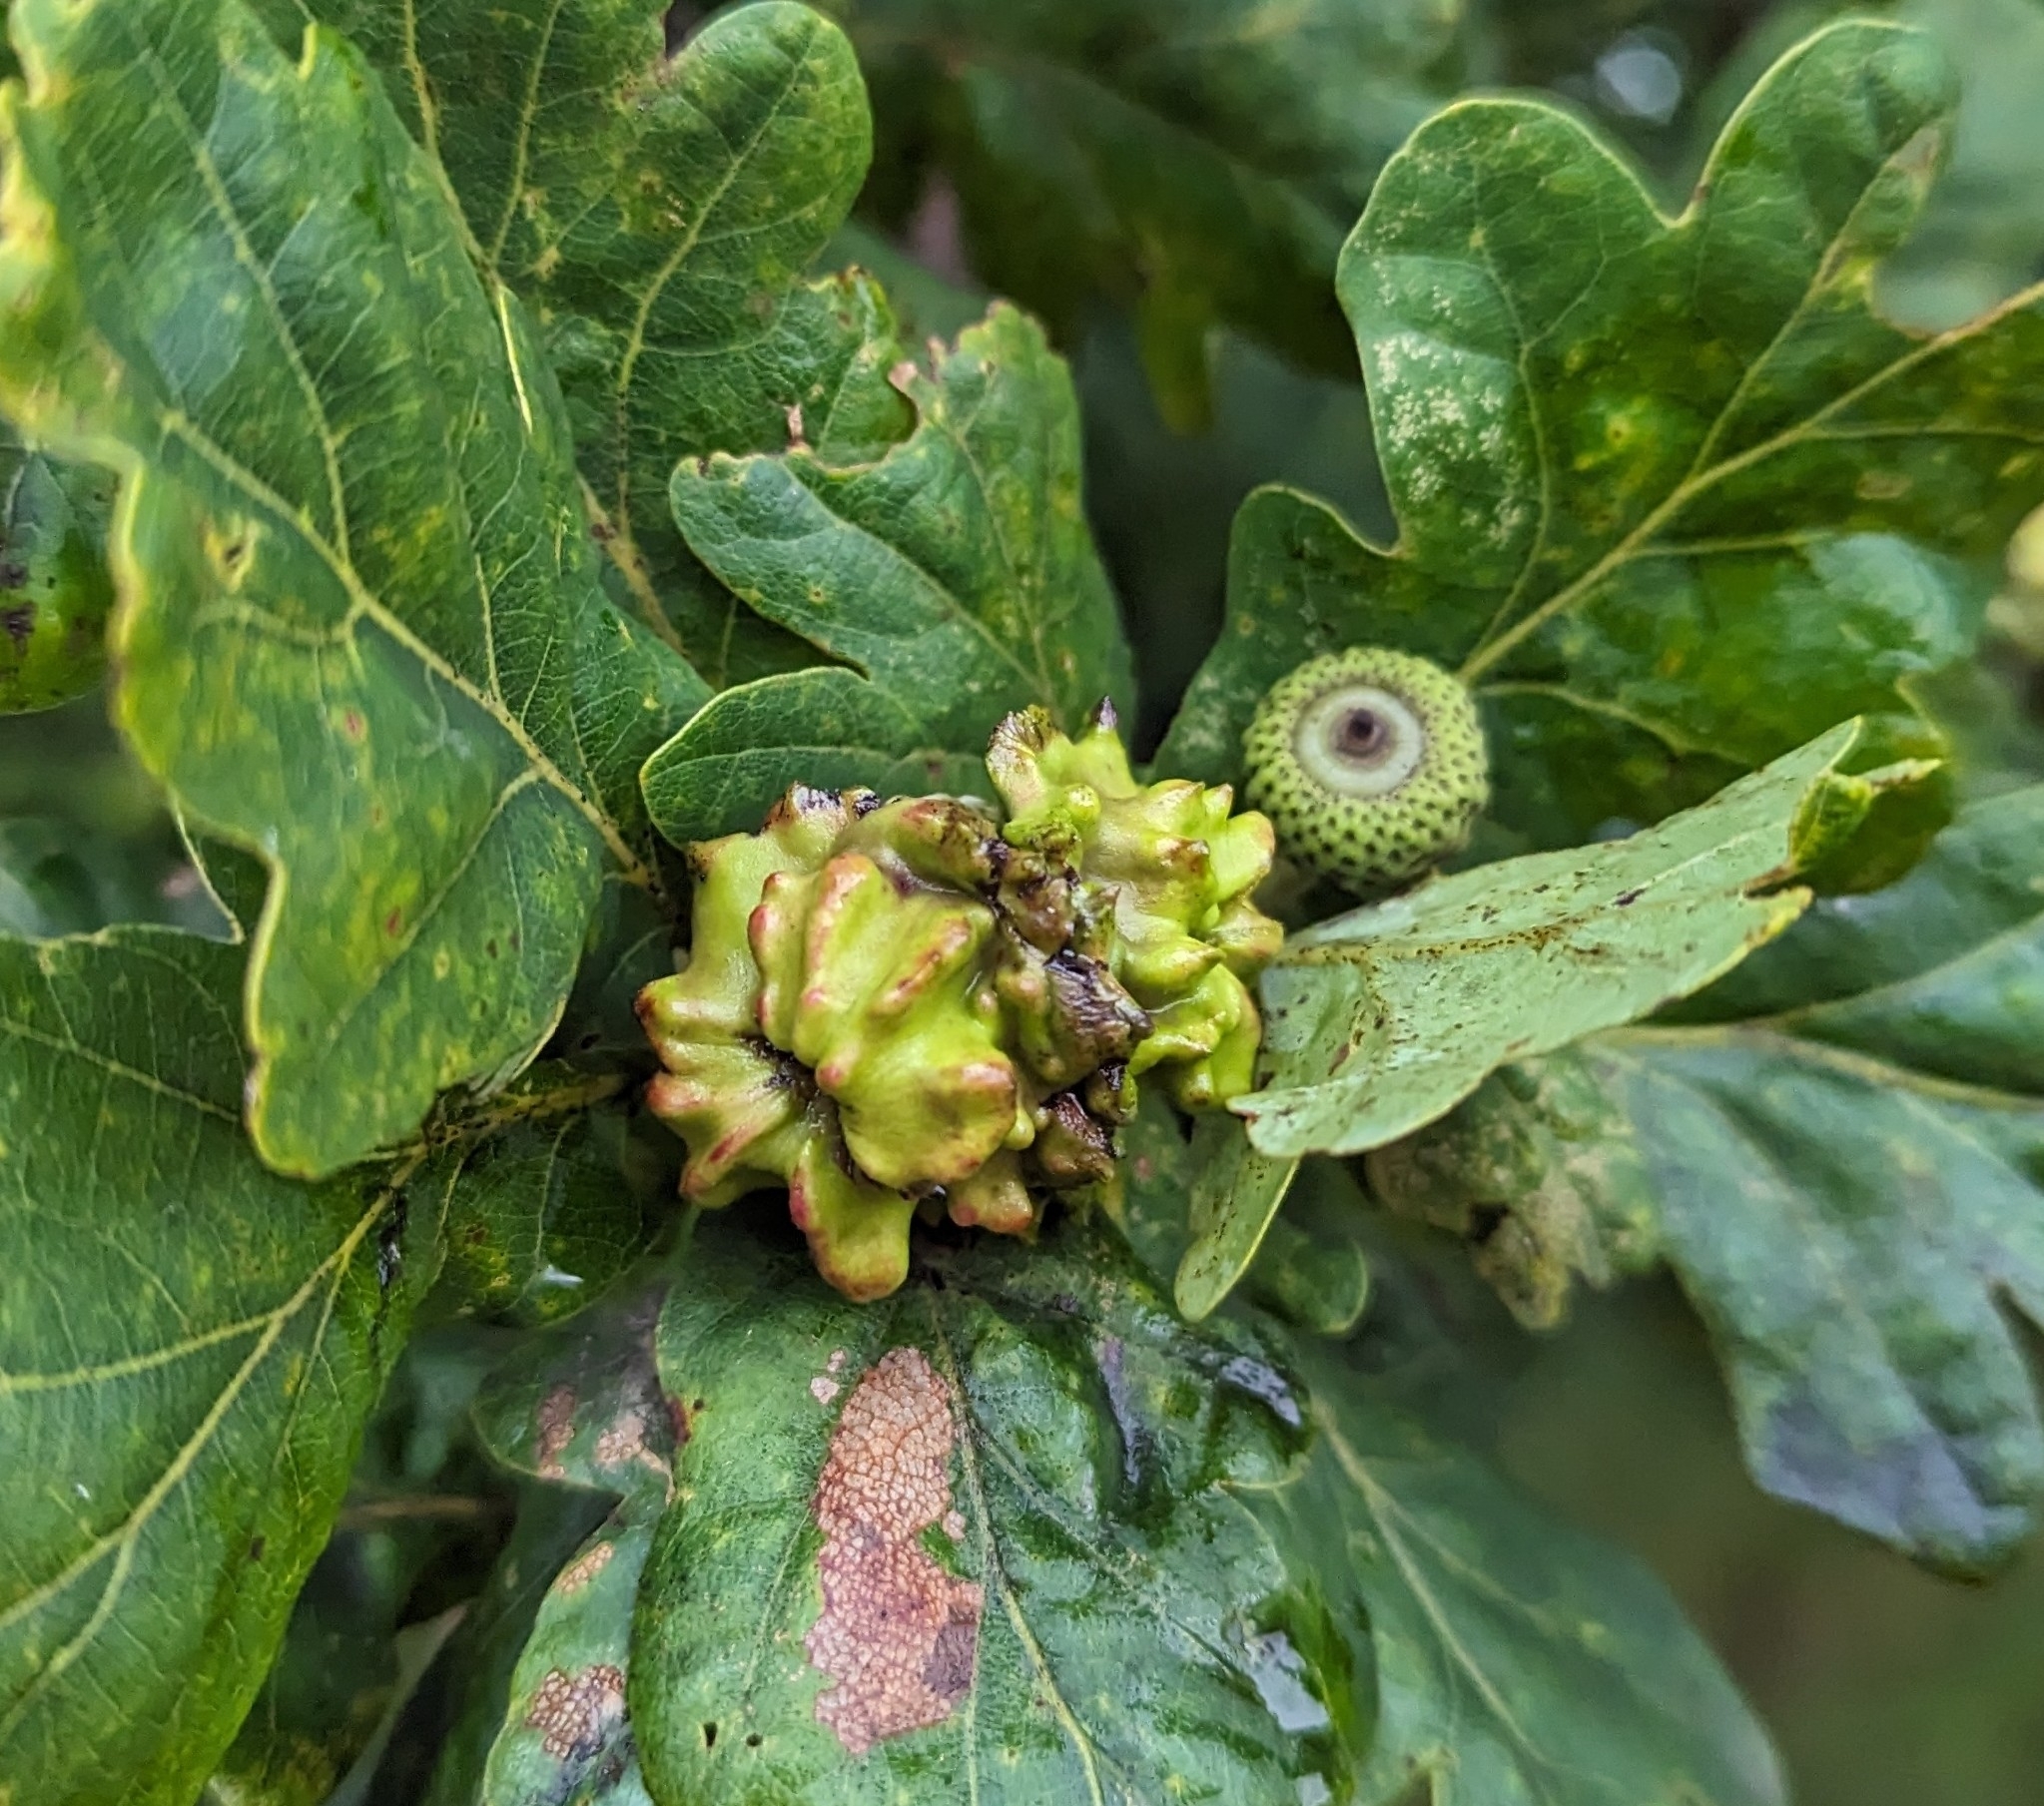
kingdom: Animalia
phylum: Arthropoda
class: Insecta
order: Hymenoptera
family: Cynipidae
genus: Andricus
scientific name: Andricus quercuscalicis
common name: Knopper gall
